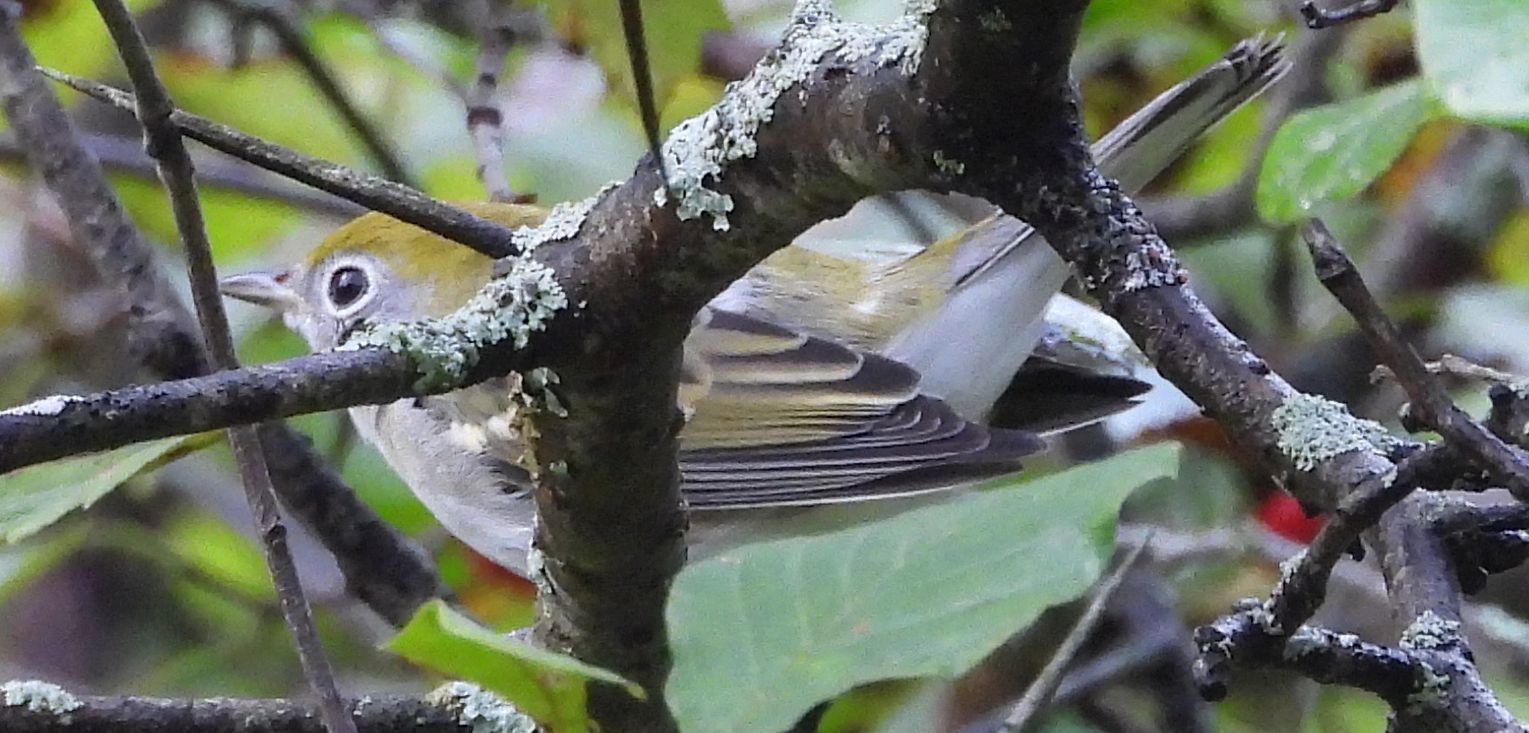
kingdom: Animalia
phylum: Chordata
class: Aves
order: Passeriformes
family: Parulidae
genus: Setophaga
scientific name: Setophaga pensylvanica
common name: Chestnut-sided warbler
